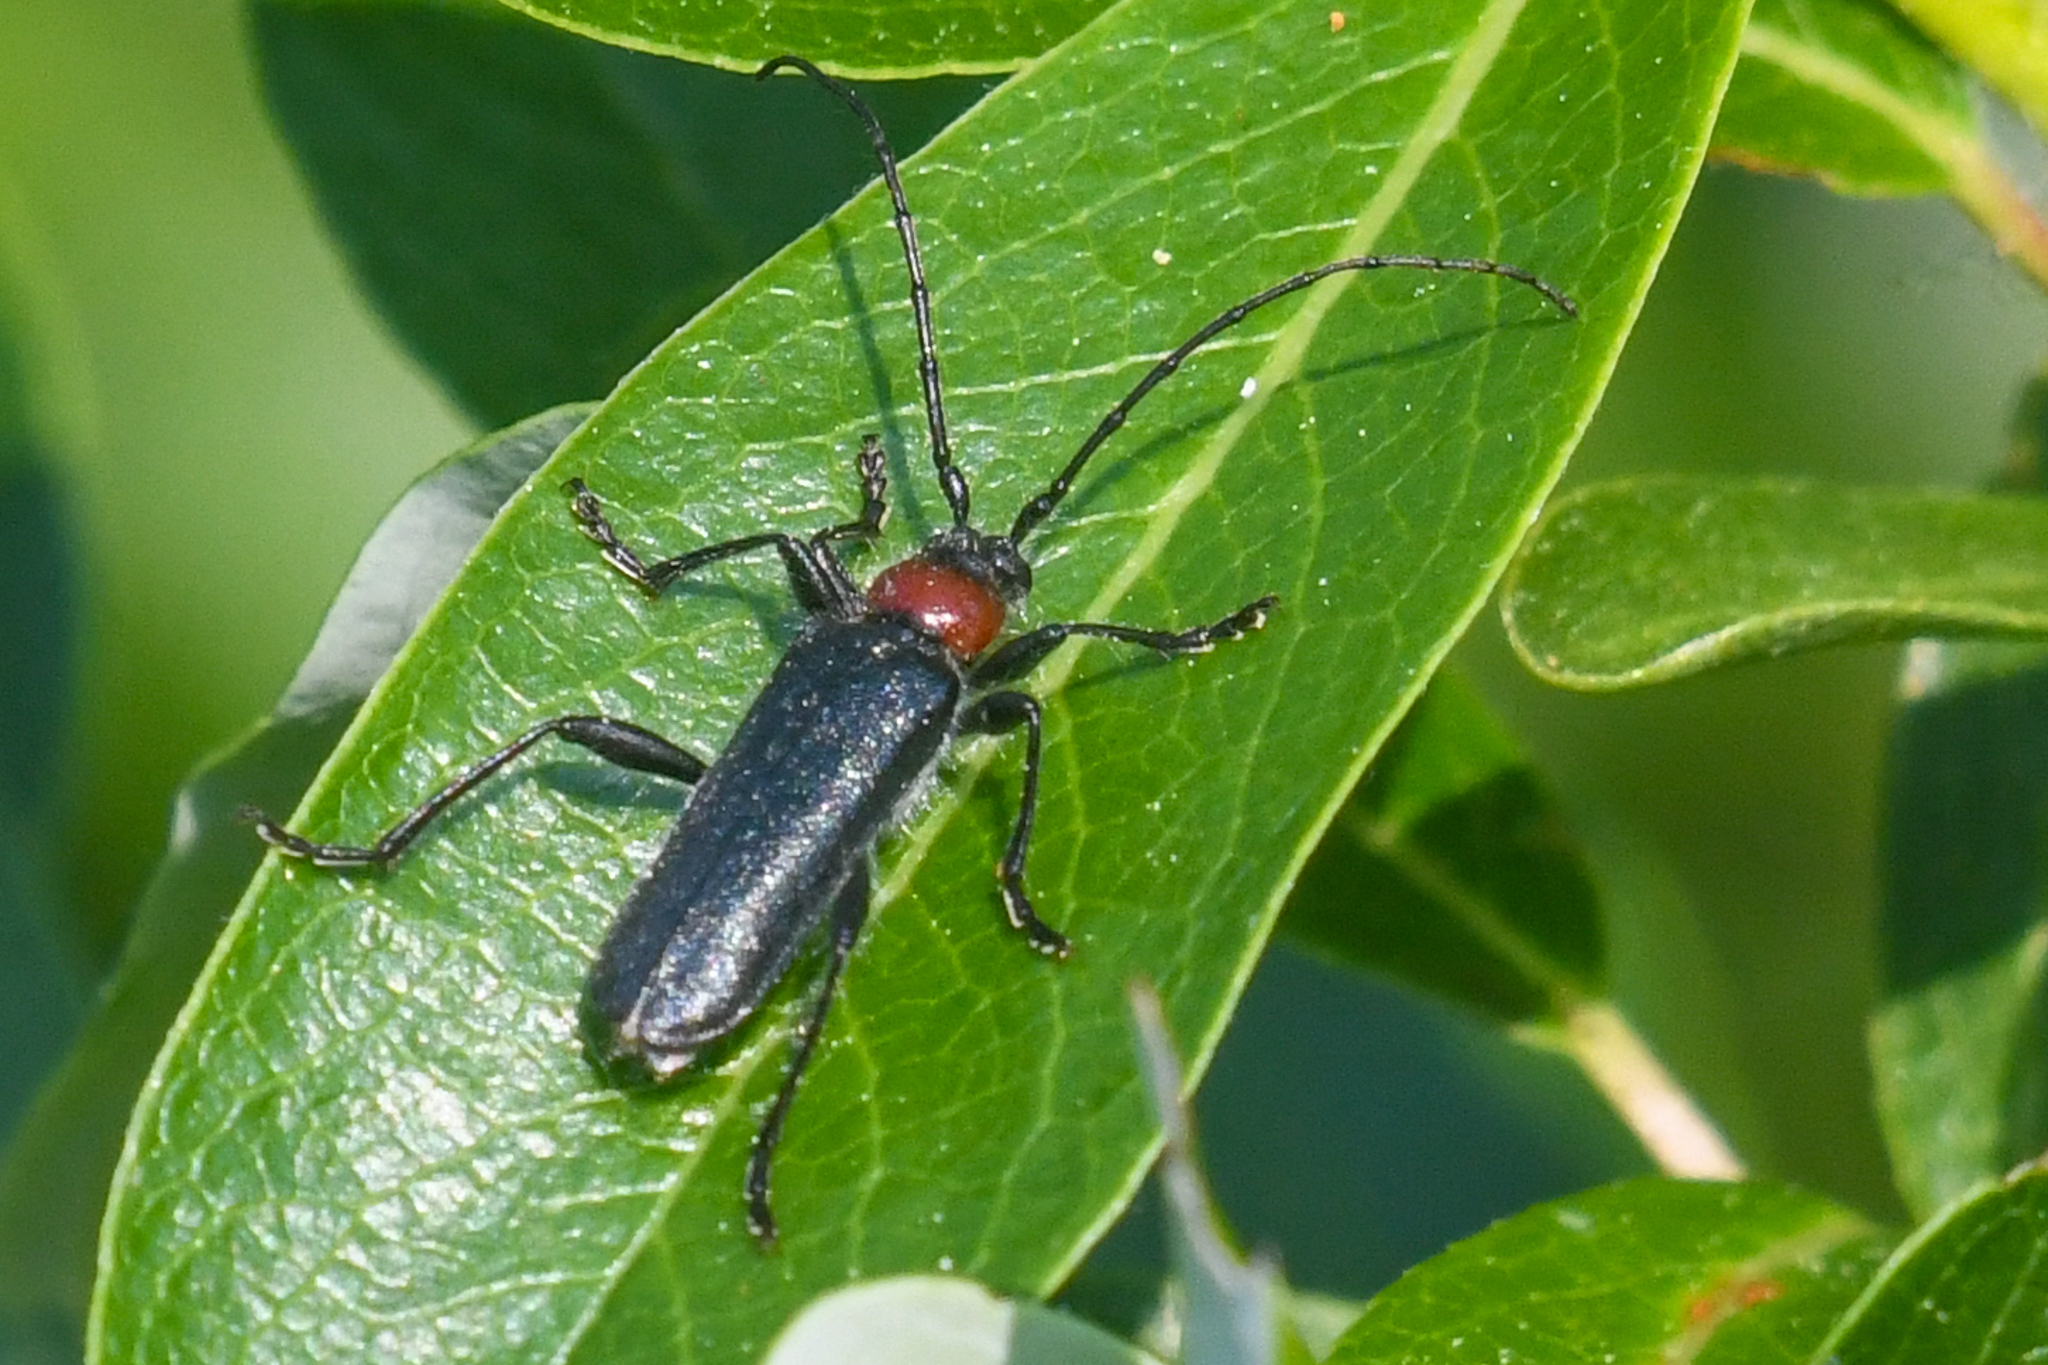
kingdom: Animalia
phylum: Arthropoda
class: Insecta
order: Coleoptera
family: Cerambycidae
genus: Pronocera
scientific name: Pronocera collaris
